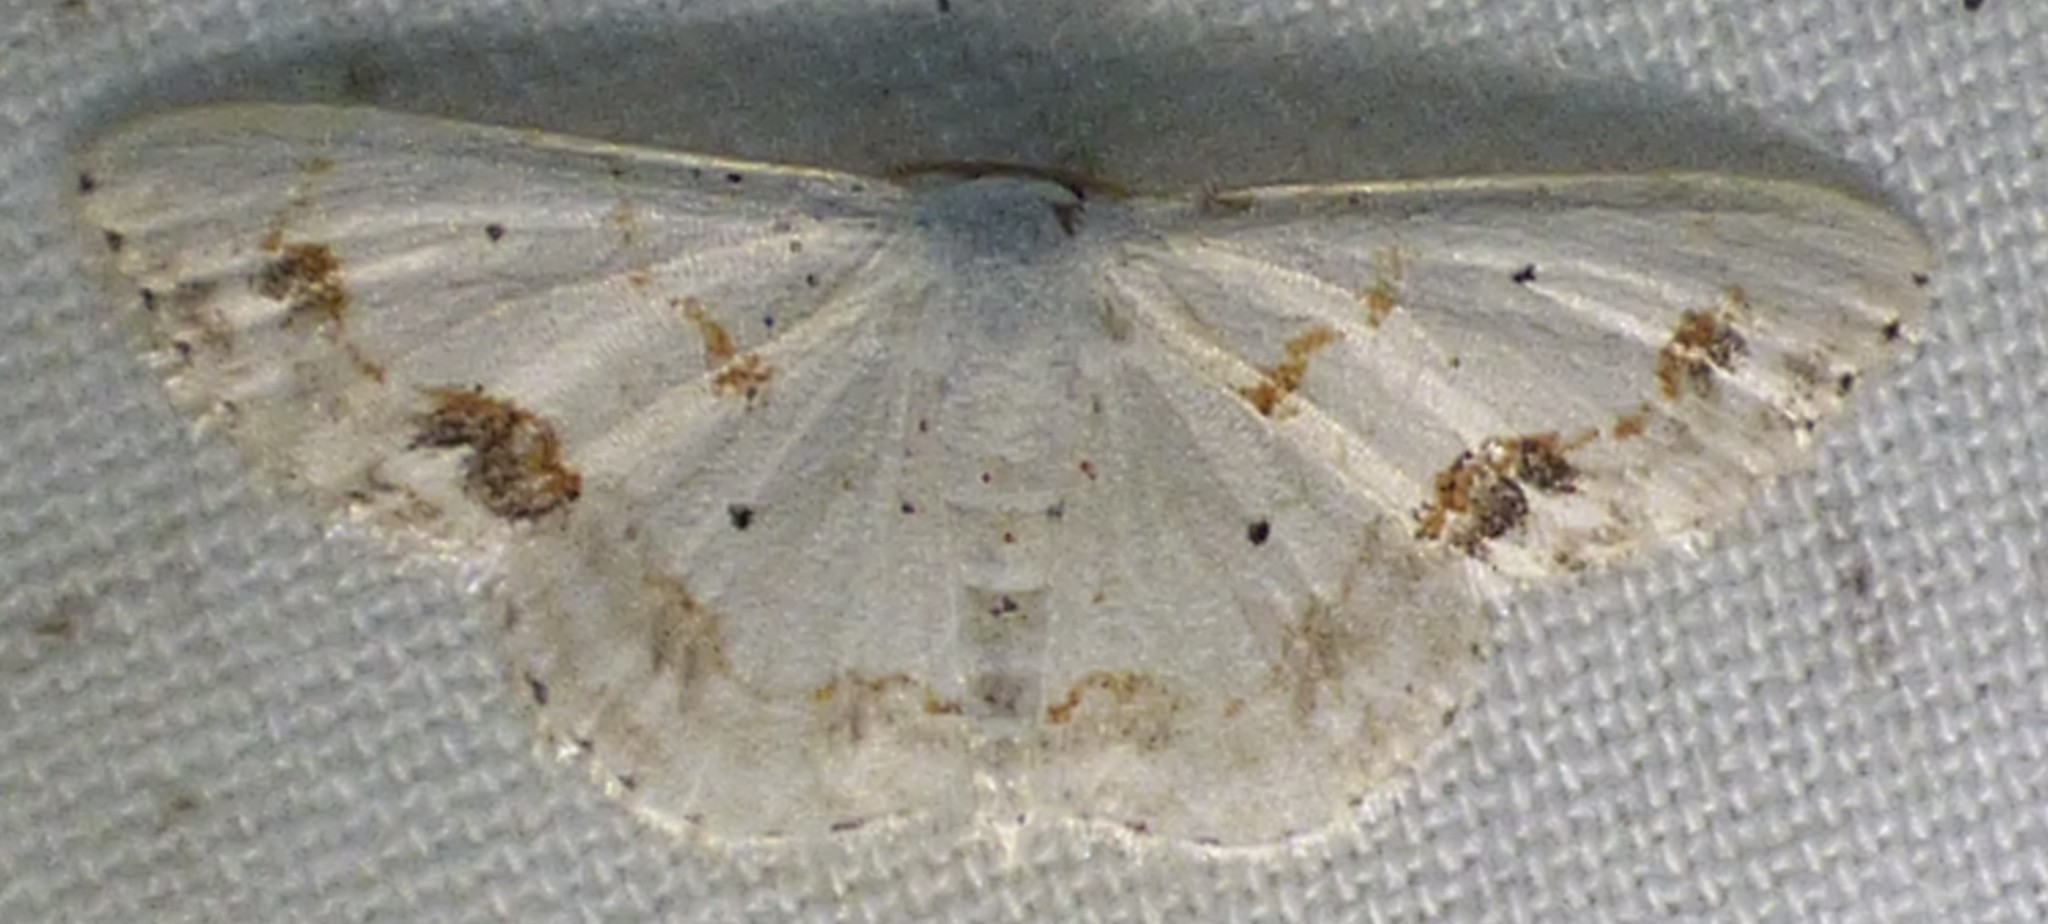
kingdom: Animalia
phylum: Arthropoda
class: Insecta
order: Lepidoptera
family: Geometridae
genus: Scopula
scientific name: Scopula lautaria
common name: Small frosted wave moth
